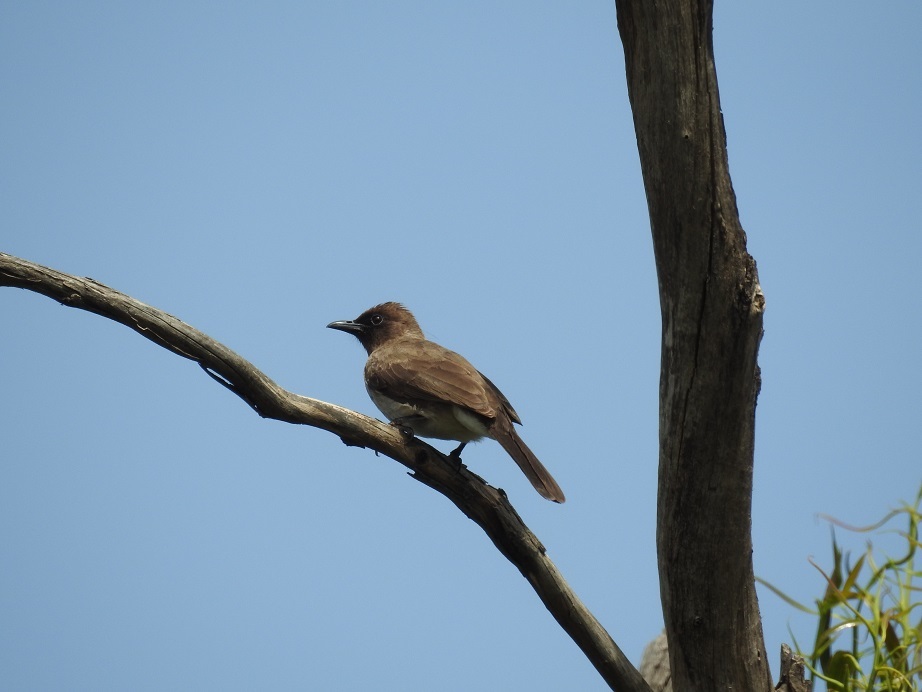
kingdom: Animalia
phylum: Chordata
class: Aves
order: Passeriformes
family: Pycnonotidae
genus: Pycnonotus
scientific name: Pycnonotus barbatus
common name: Common bulbul
